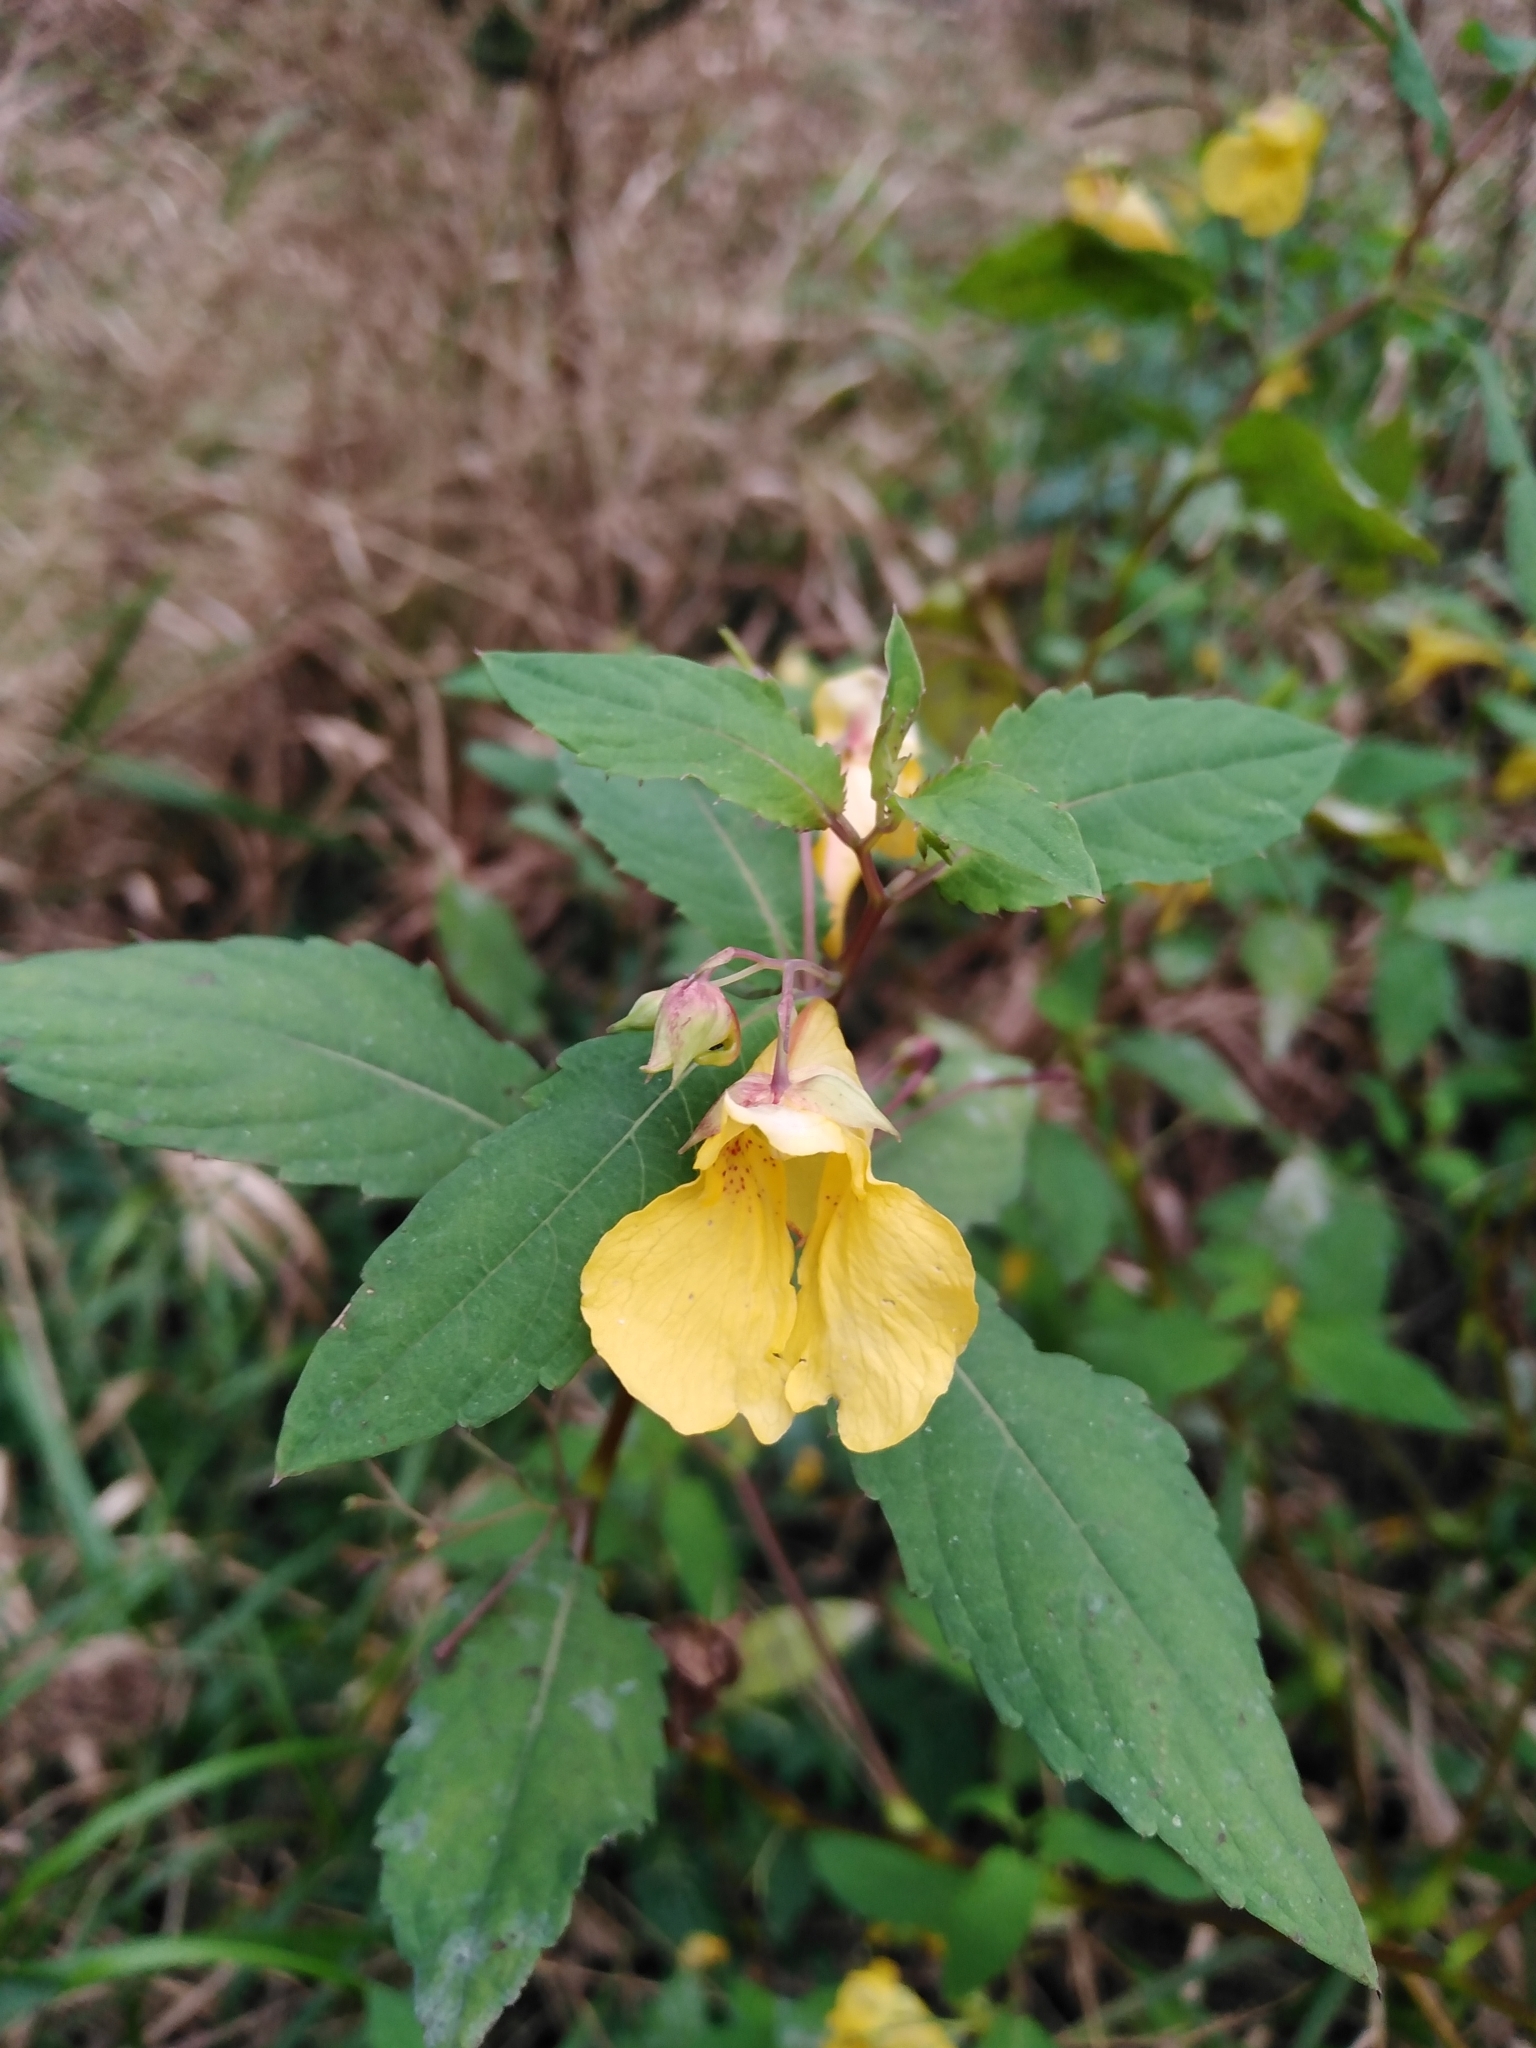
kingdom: Plantae
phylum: Tracheophyta
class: Magnoliopsida
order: Ericales
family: Balsaminaceae
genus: Impatiens
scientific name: Impatiens noli-tangere
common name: Touch-me-not balsam
